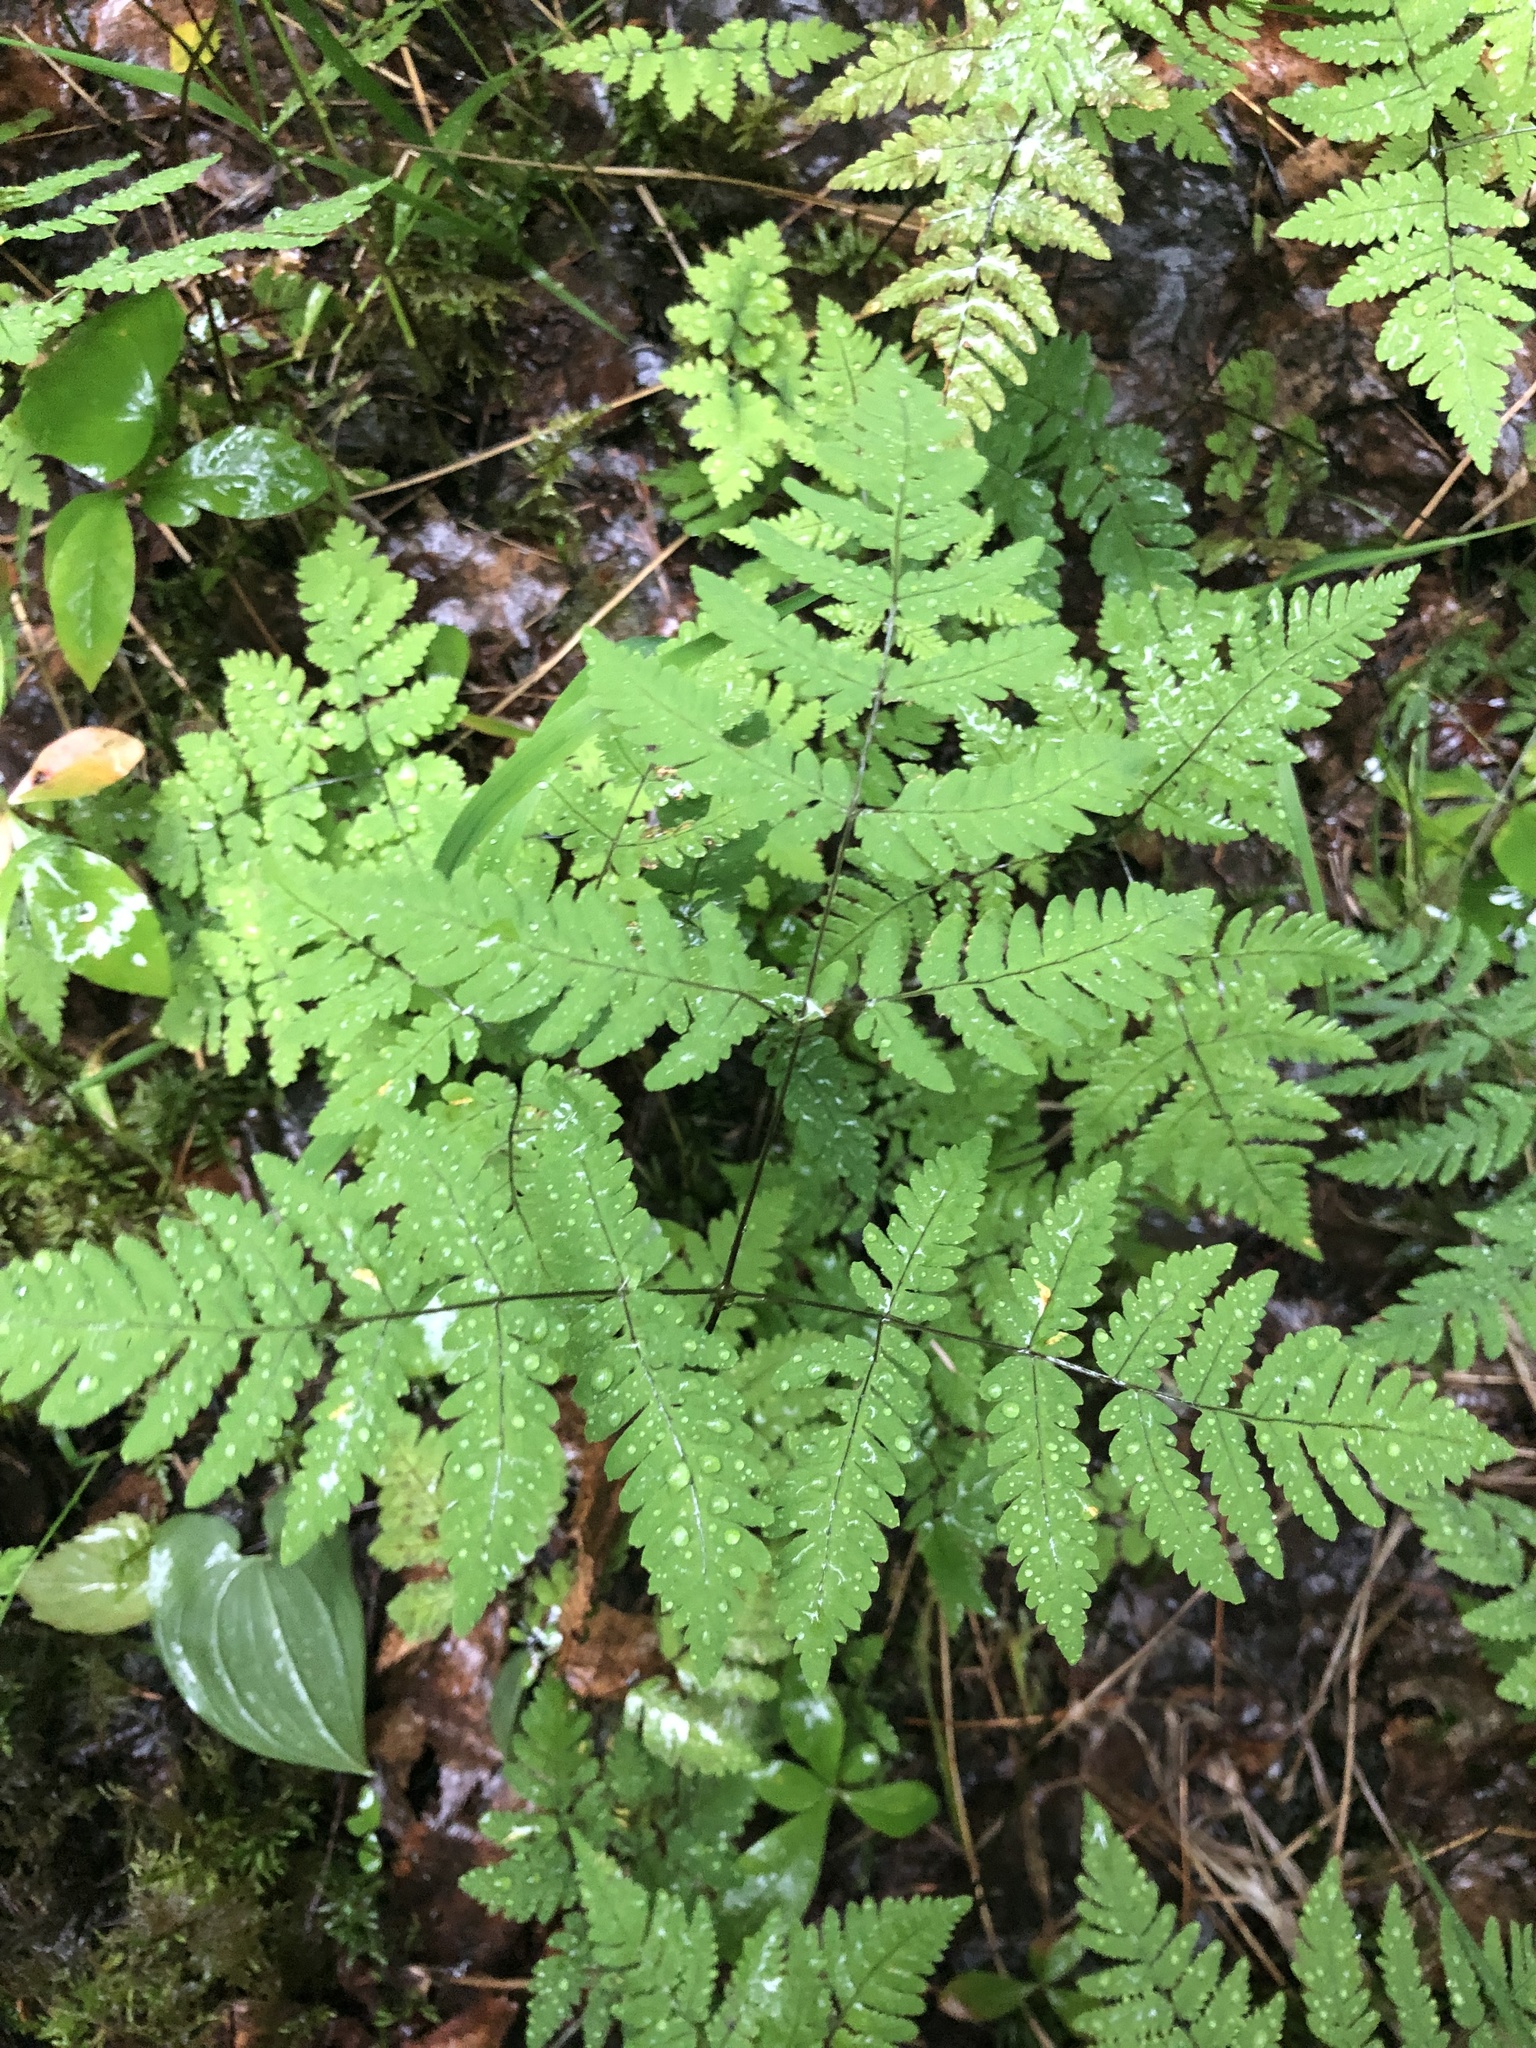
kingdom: Plantae
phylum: Tracheophyta
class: Polypodiopsida
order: Polypodiales
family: Cystopteridaceae
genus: Gymnocarpium
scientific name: Gymnocarpium dryopteris
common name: Oak fern
